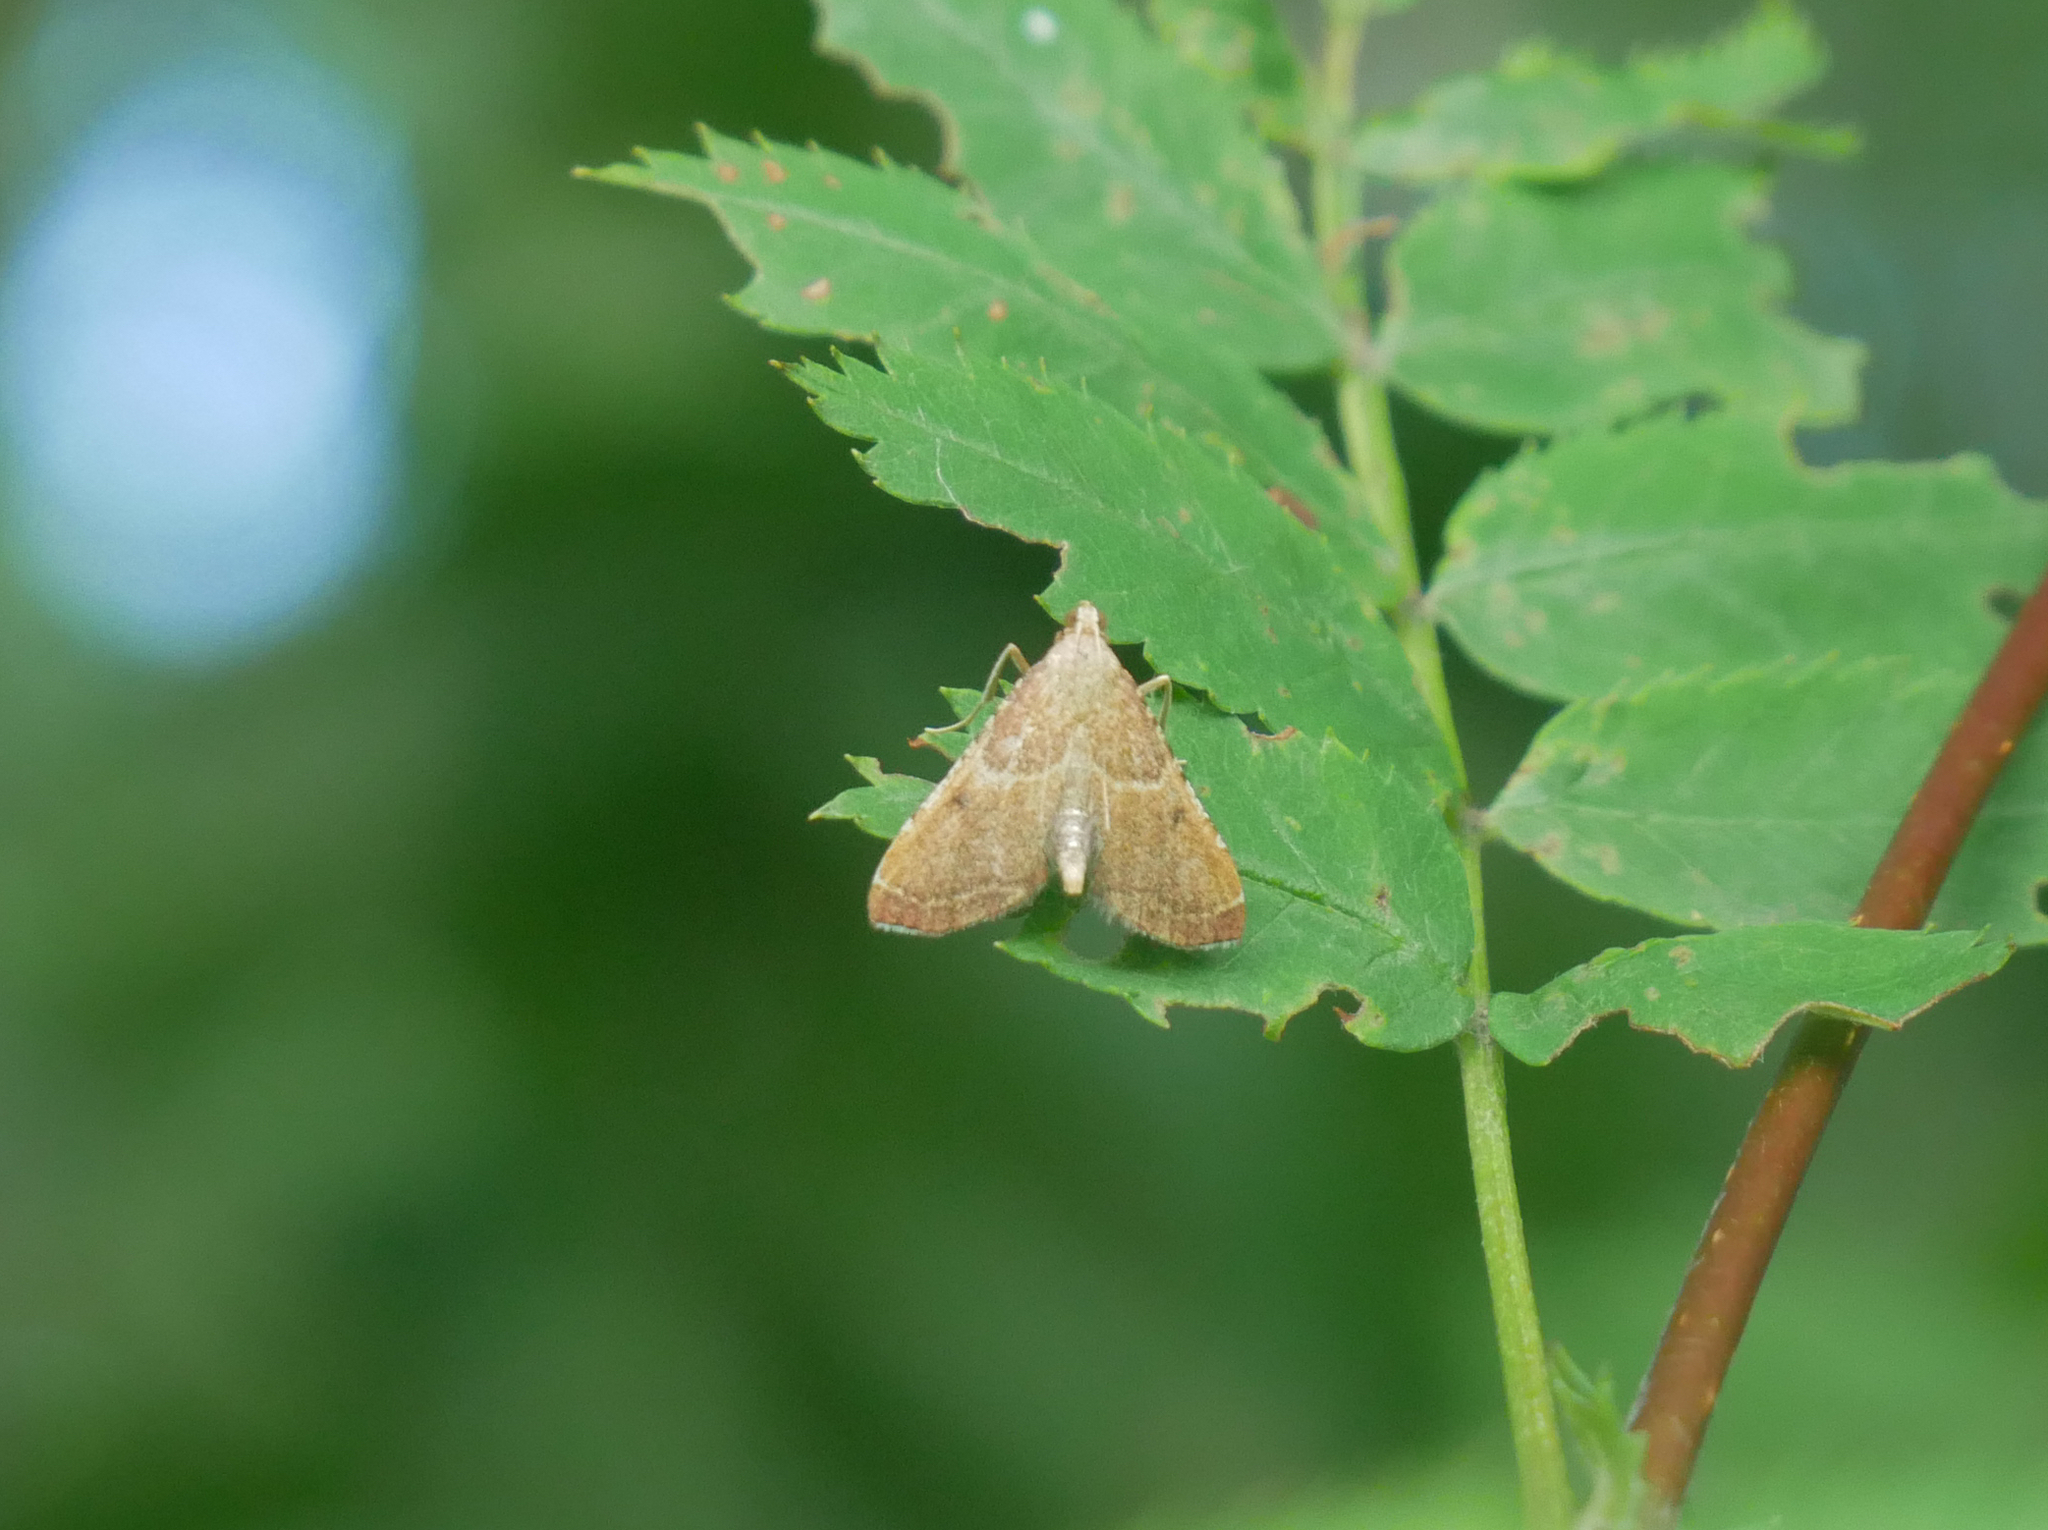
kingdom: Animalia
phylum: Arthropoda
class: Insecta
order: Lepidoptera
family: Pyralidae
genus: Endotricha
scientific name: Endotricha flammealis
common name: Rosy tabby
